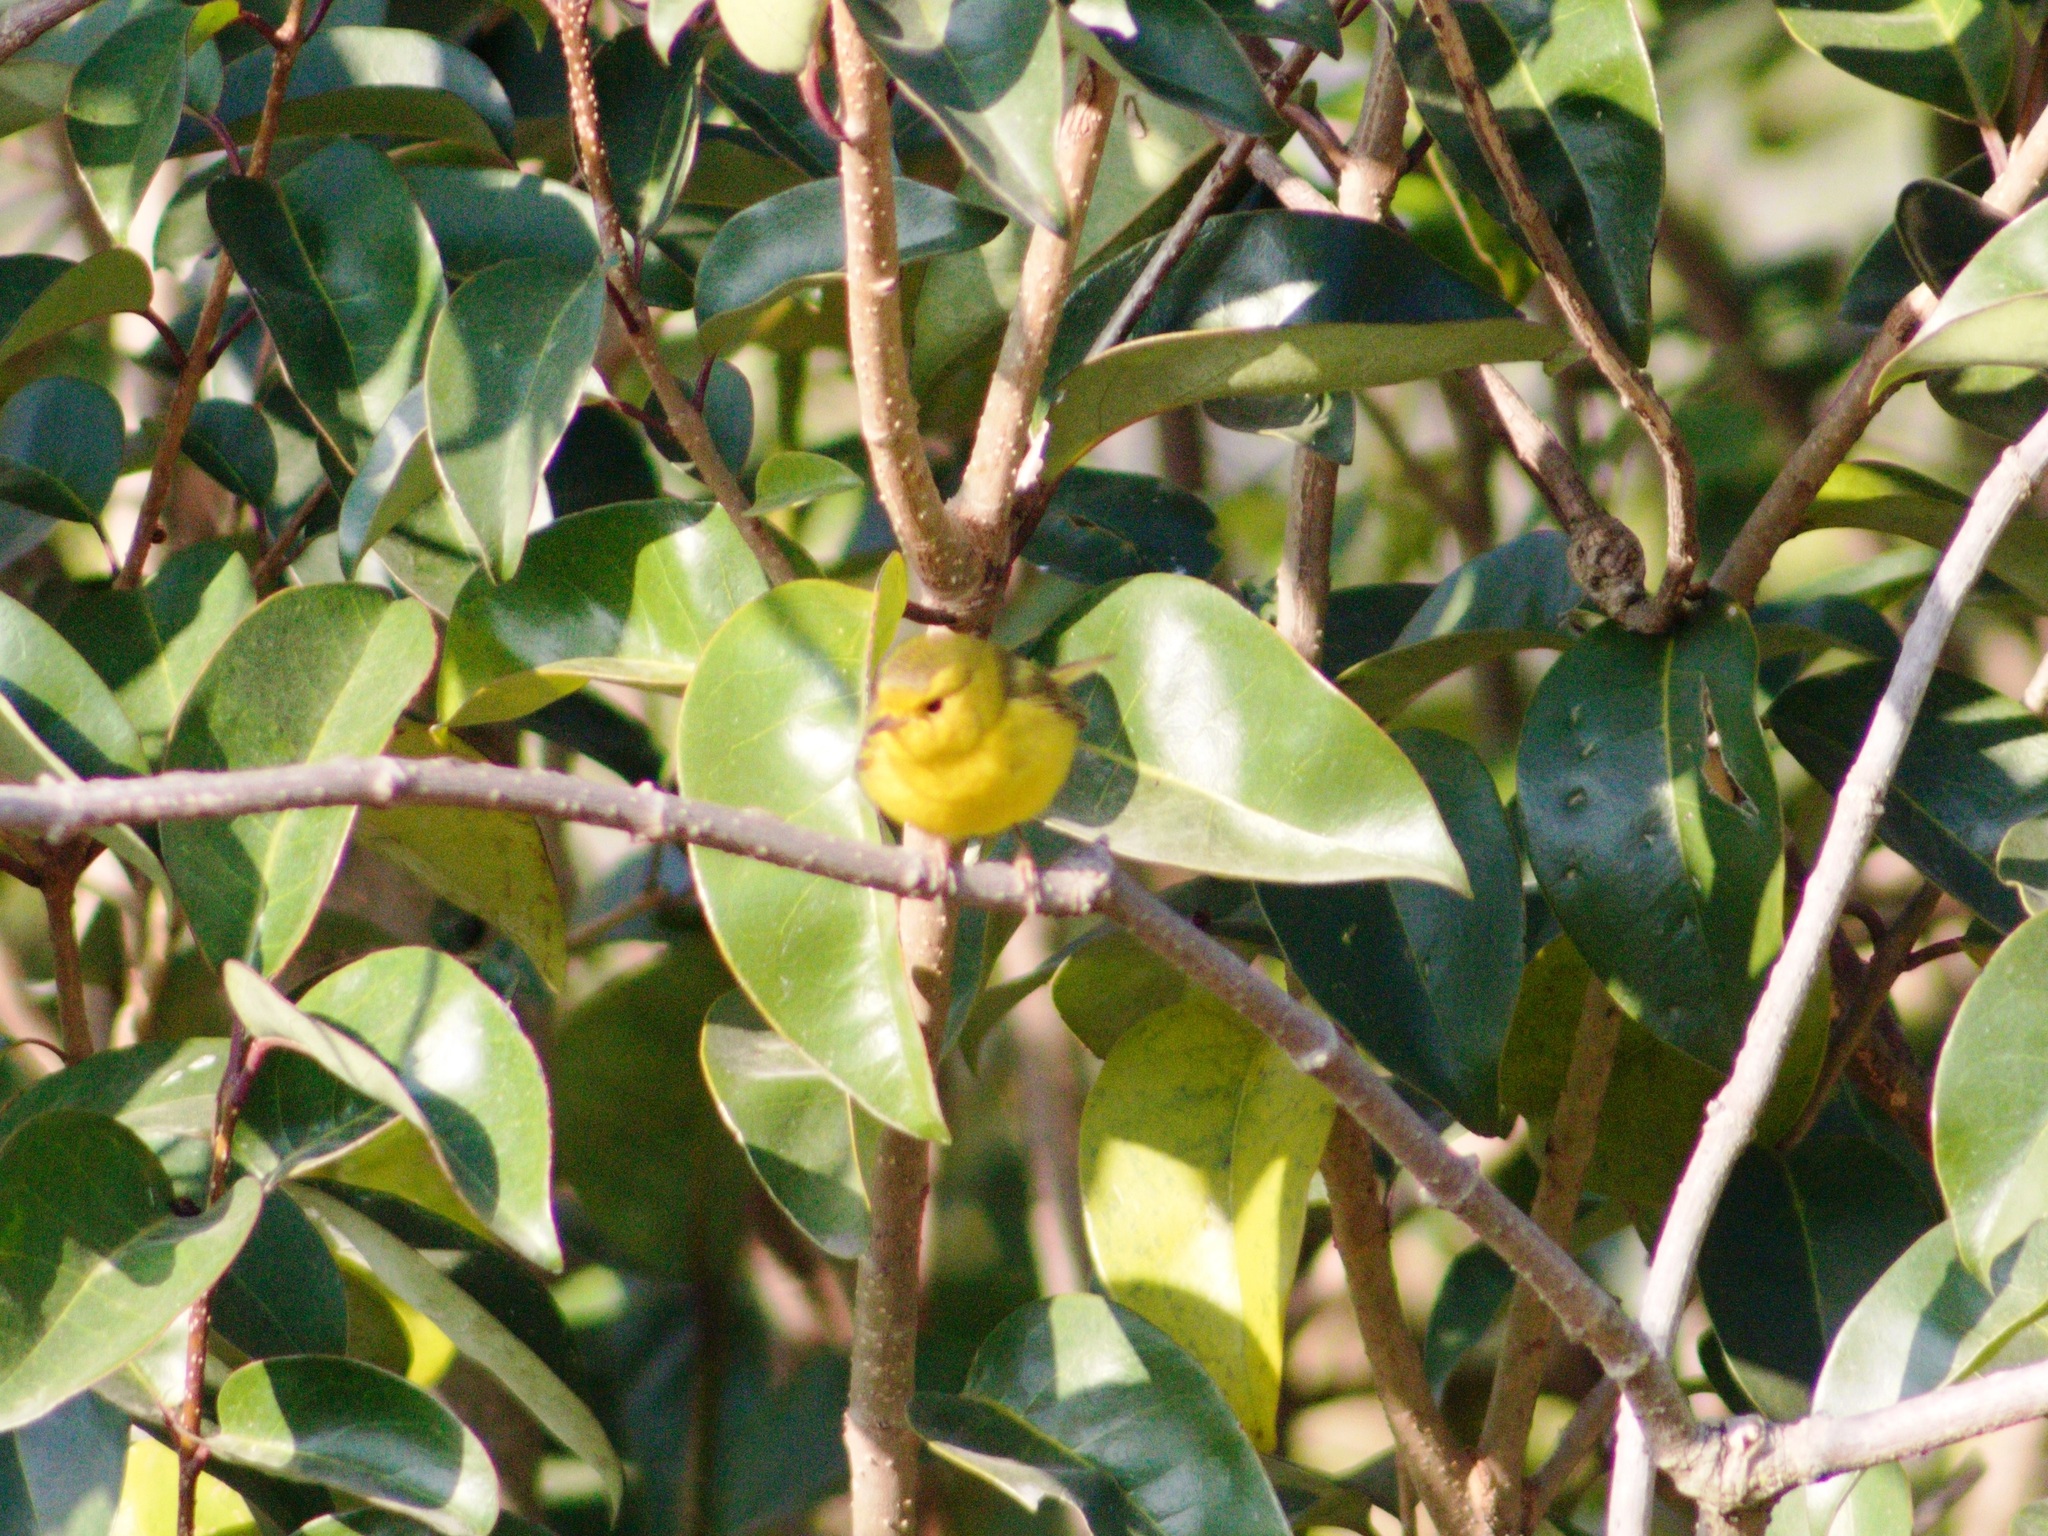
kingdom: Animalia
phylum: Chordata
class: Aves
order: Passeriformes
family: Parulidae
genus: Cardellina
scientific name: Cardellina pusilla
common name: Wilson's warbler
